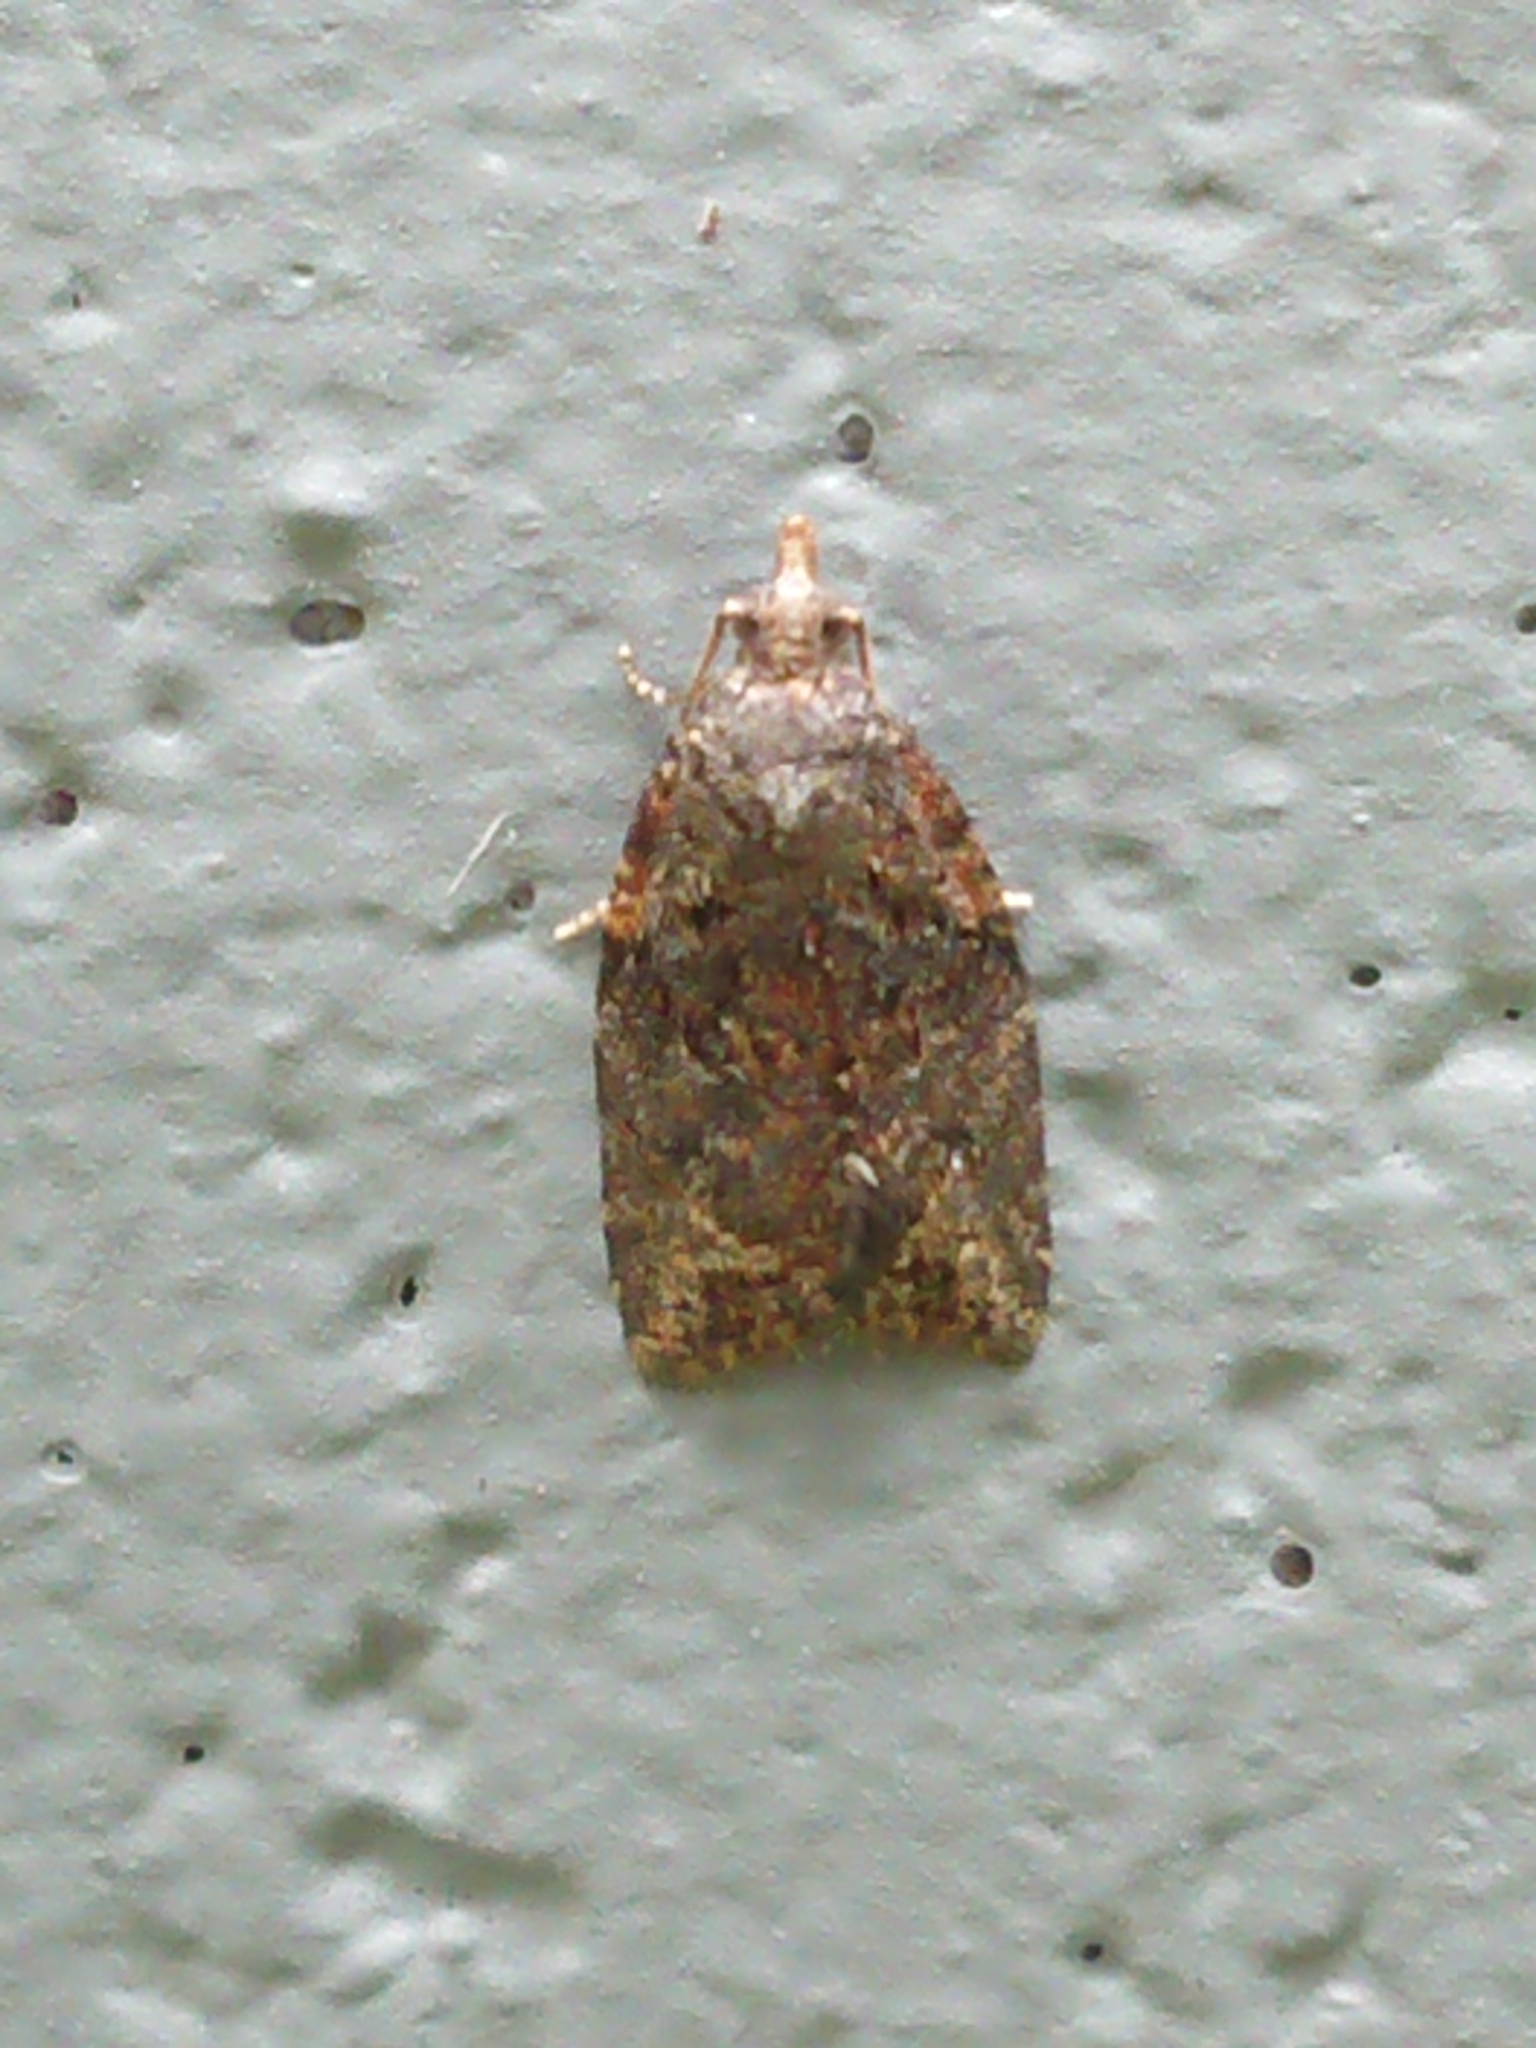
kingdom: Animalia
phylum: Arthropoda
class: Insecta
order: Lepidoptera
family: Tortricidae
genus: Capua
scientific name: Capua intractana
